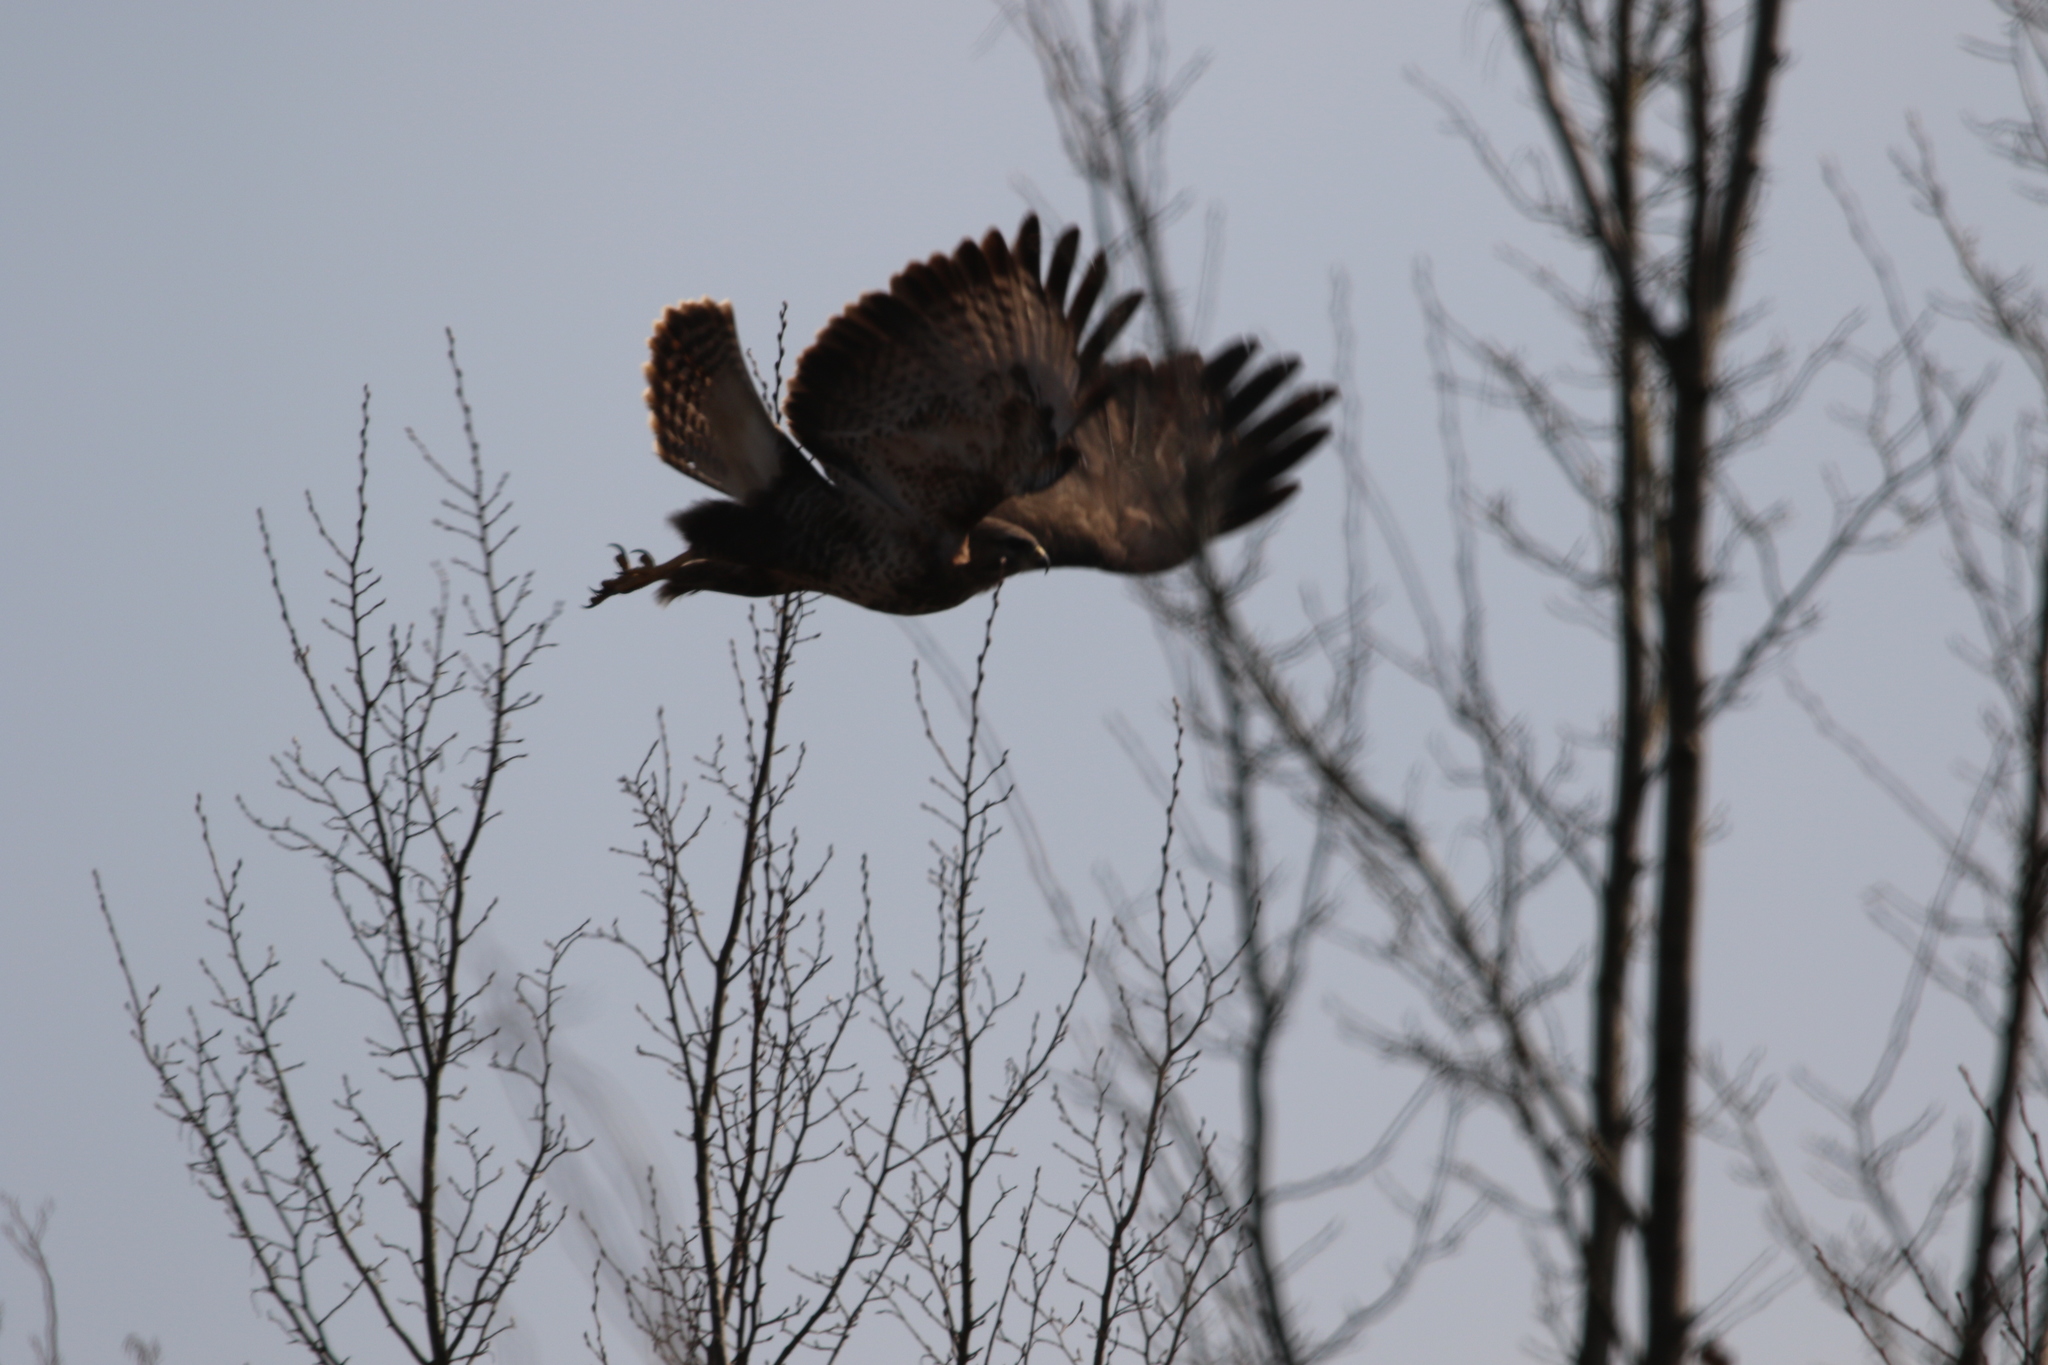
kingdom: Animalia
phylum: Chordata
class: Aves
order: Accipitriformes
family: Accipitridae
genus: Buteo
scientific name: Buteo buteo
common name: Common buzzard
